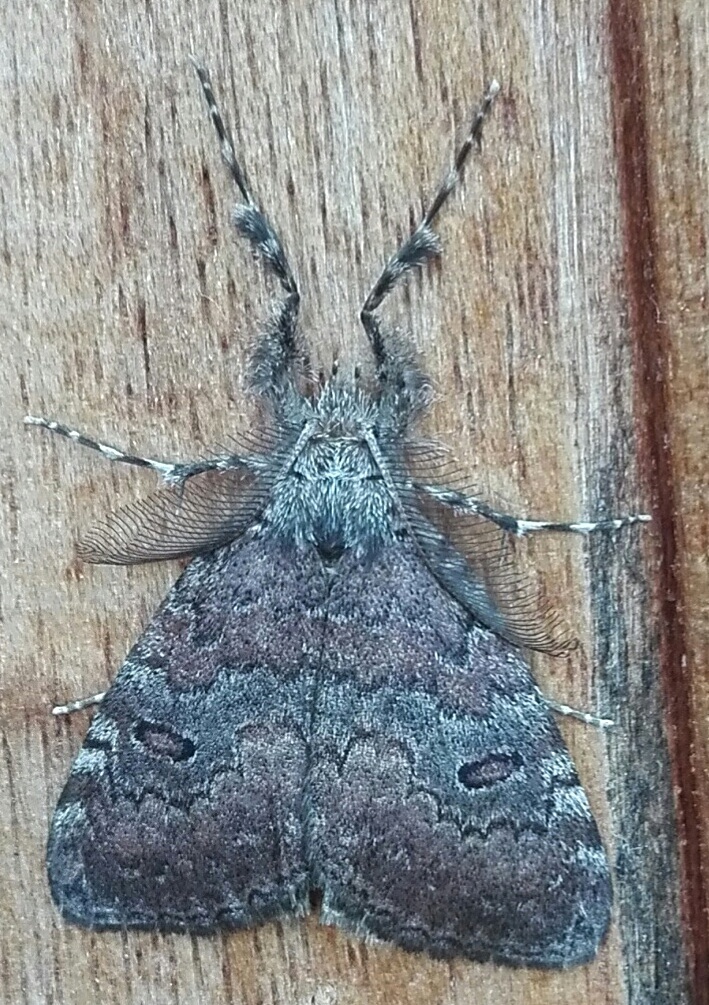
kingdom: Animalia
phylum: Arthropoda
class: Insecta
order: Lepidoptera
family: Erebidae
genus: Laelia
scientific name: Laelia fusca
